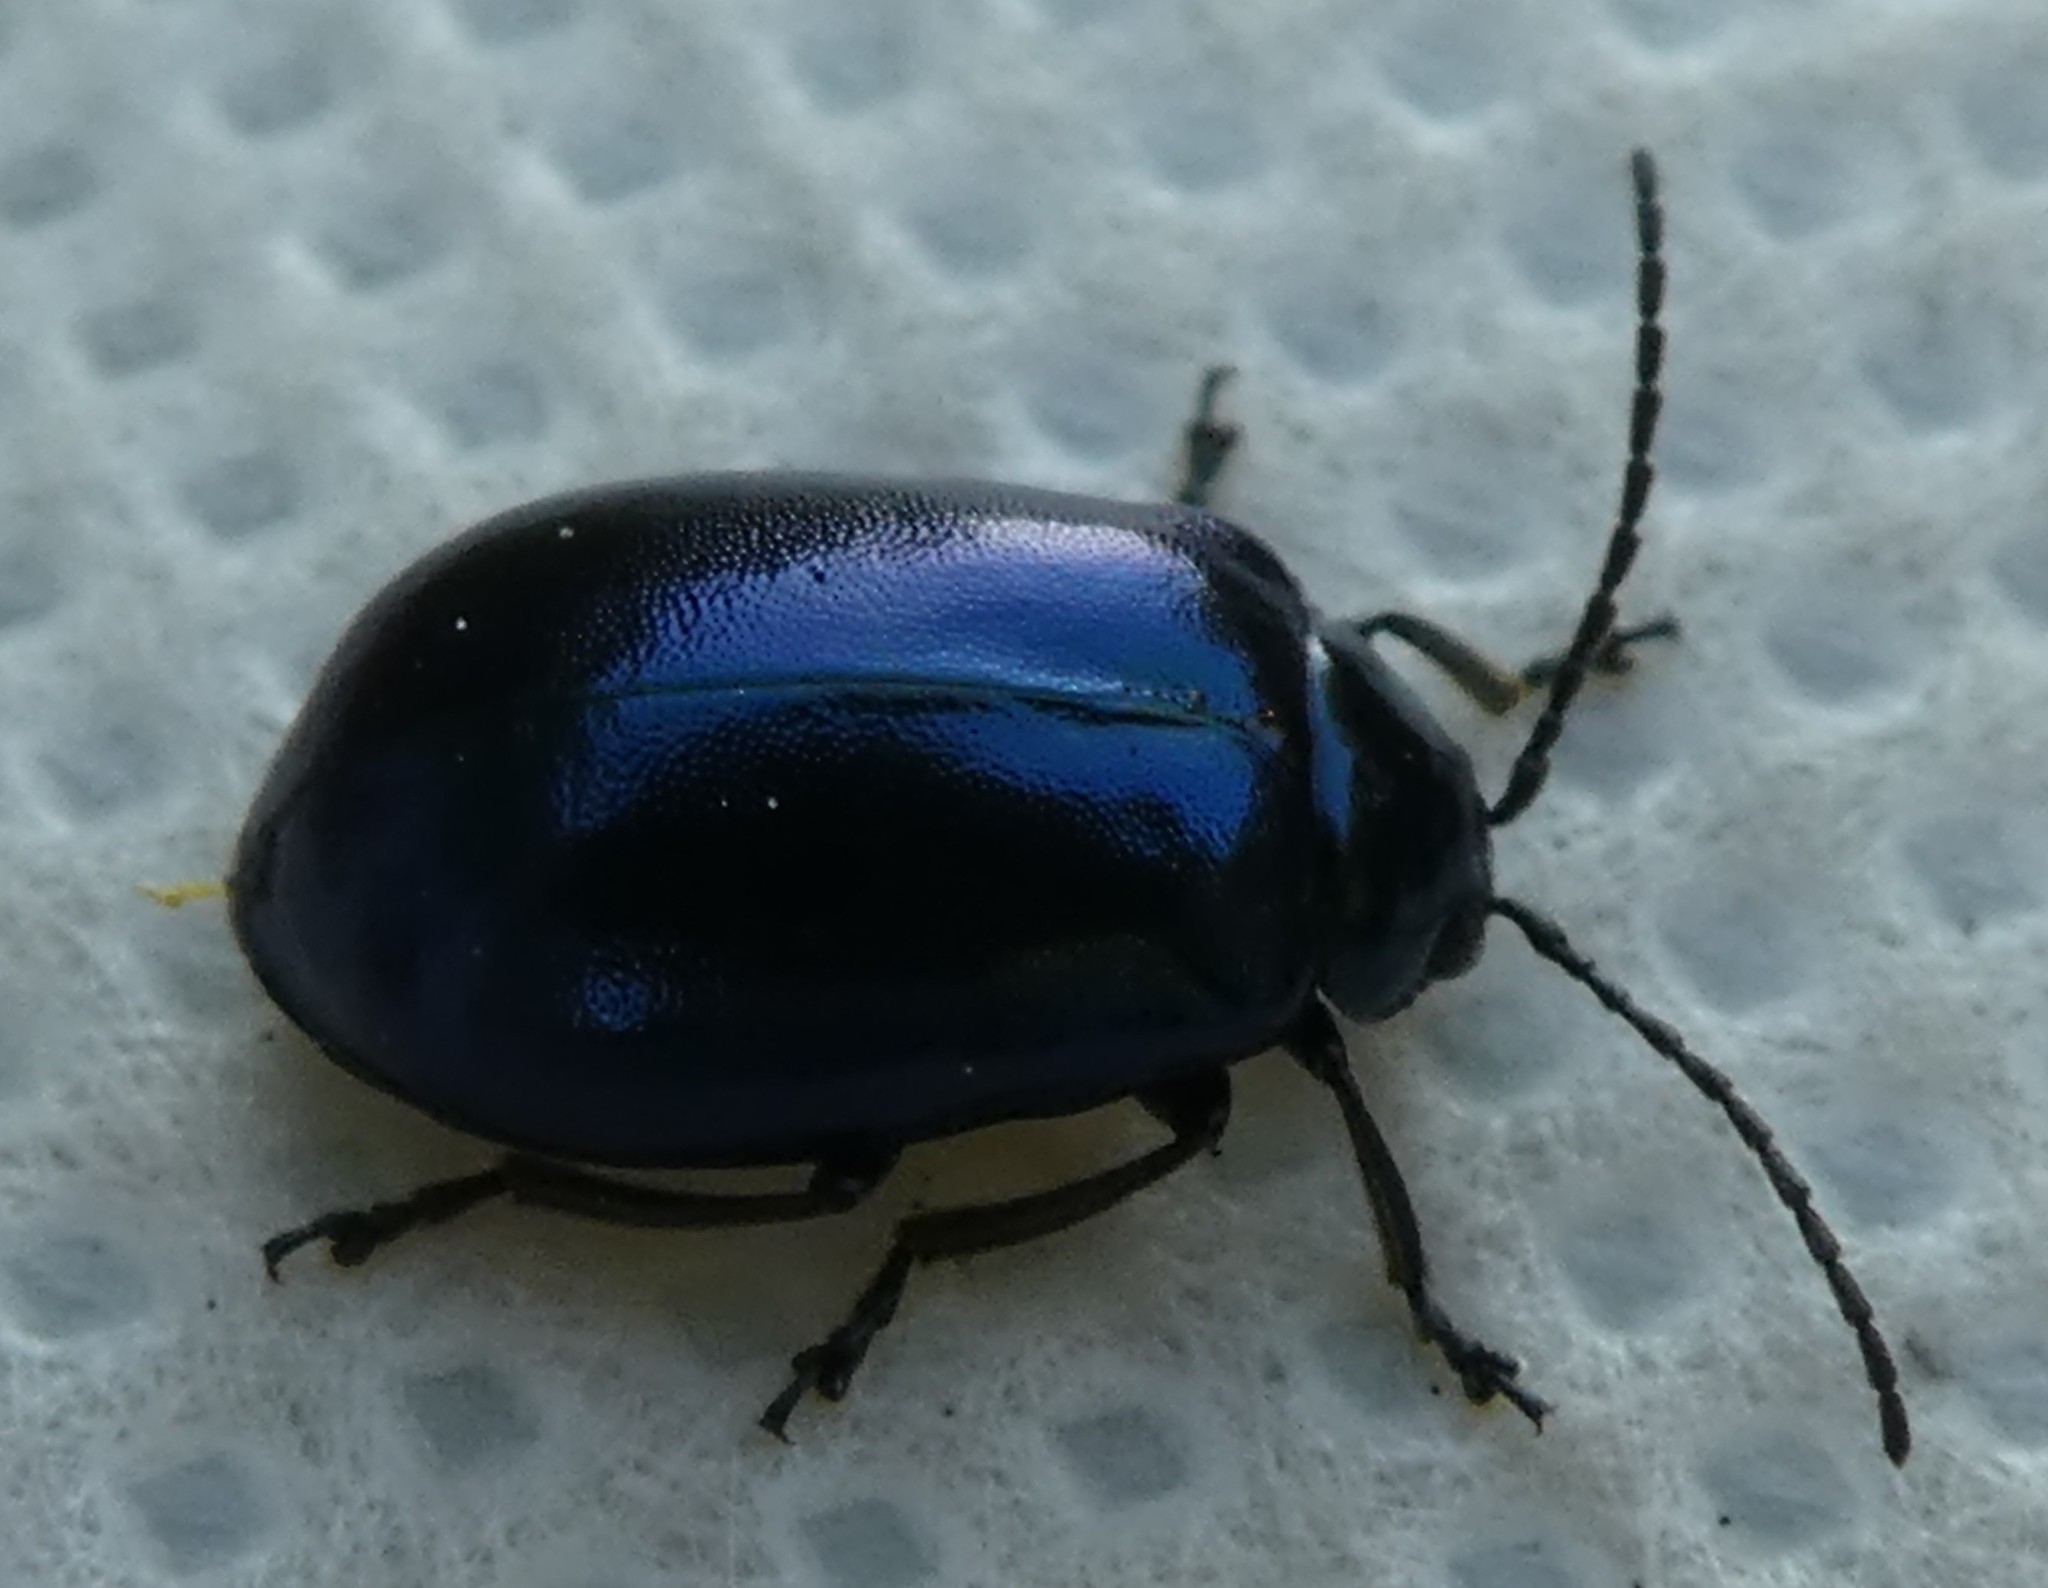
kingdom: Animalia
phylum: Arthropoda
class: Insecta
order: Coleoptera
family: Chrysomelidae
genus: Agelastica
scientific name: Agelastica alni
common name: Alder leaf beetle
